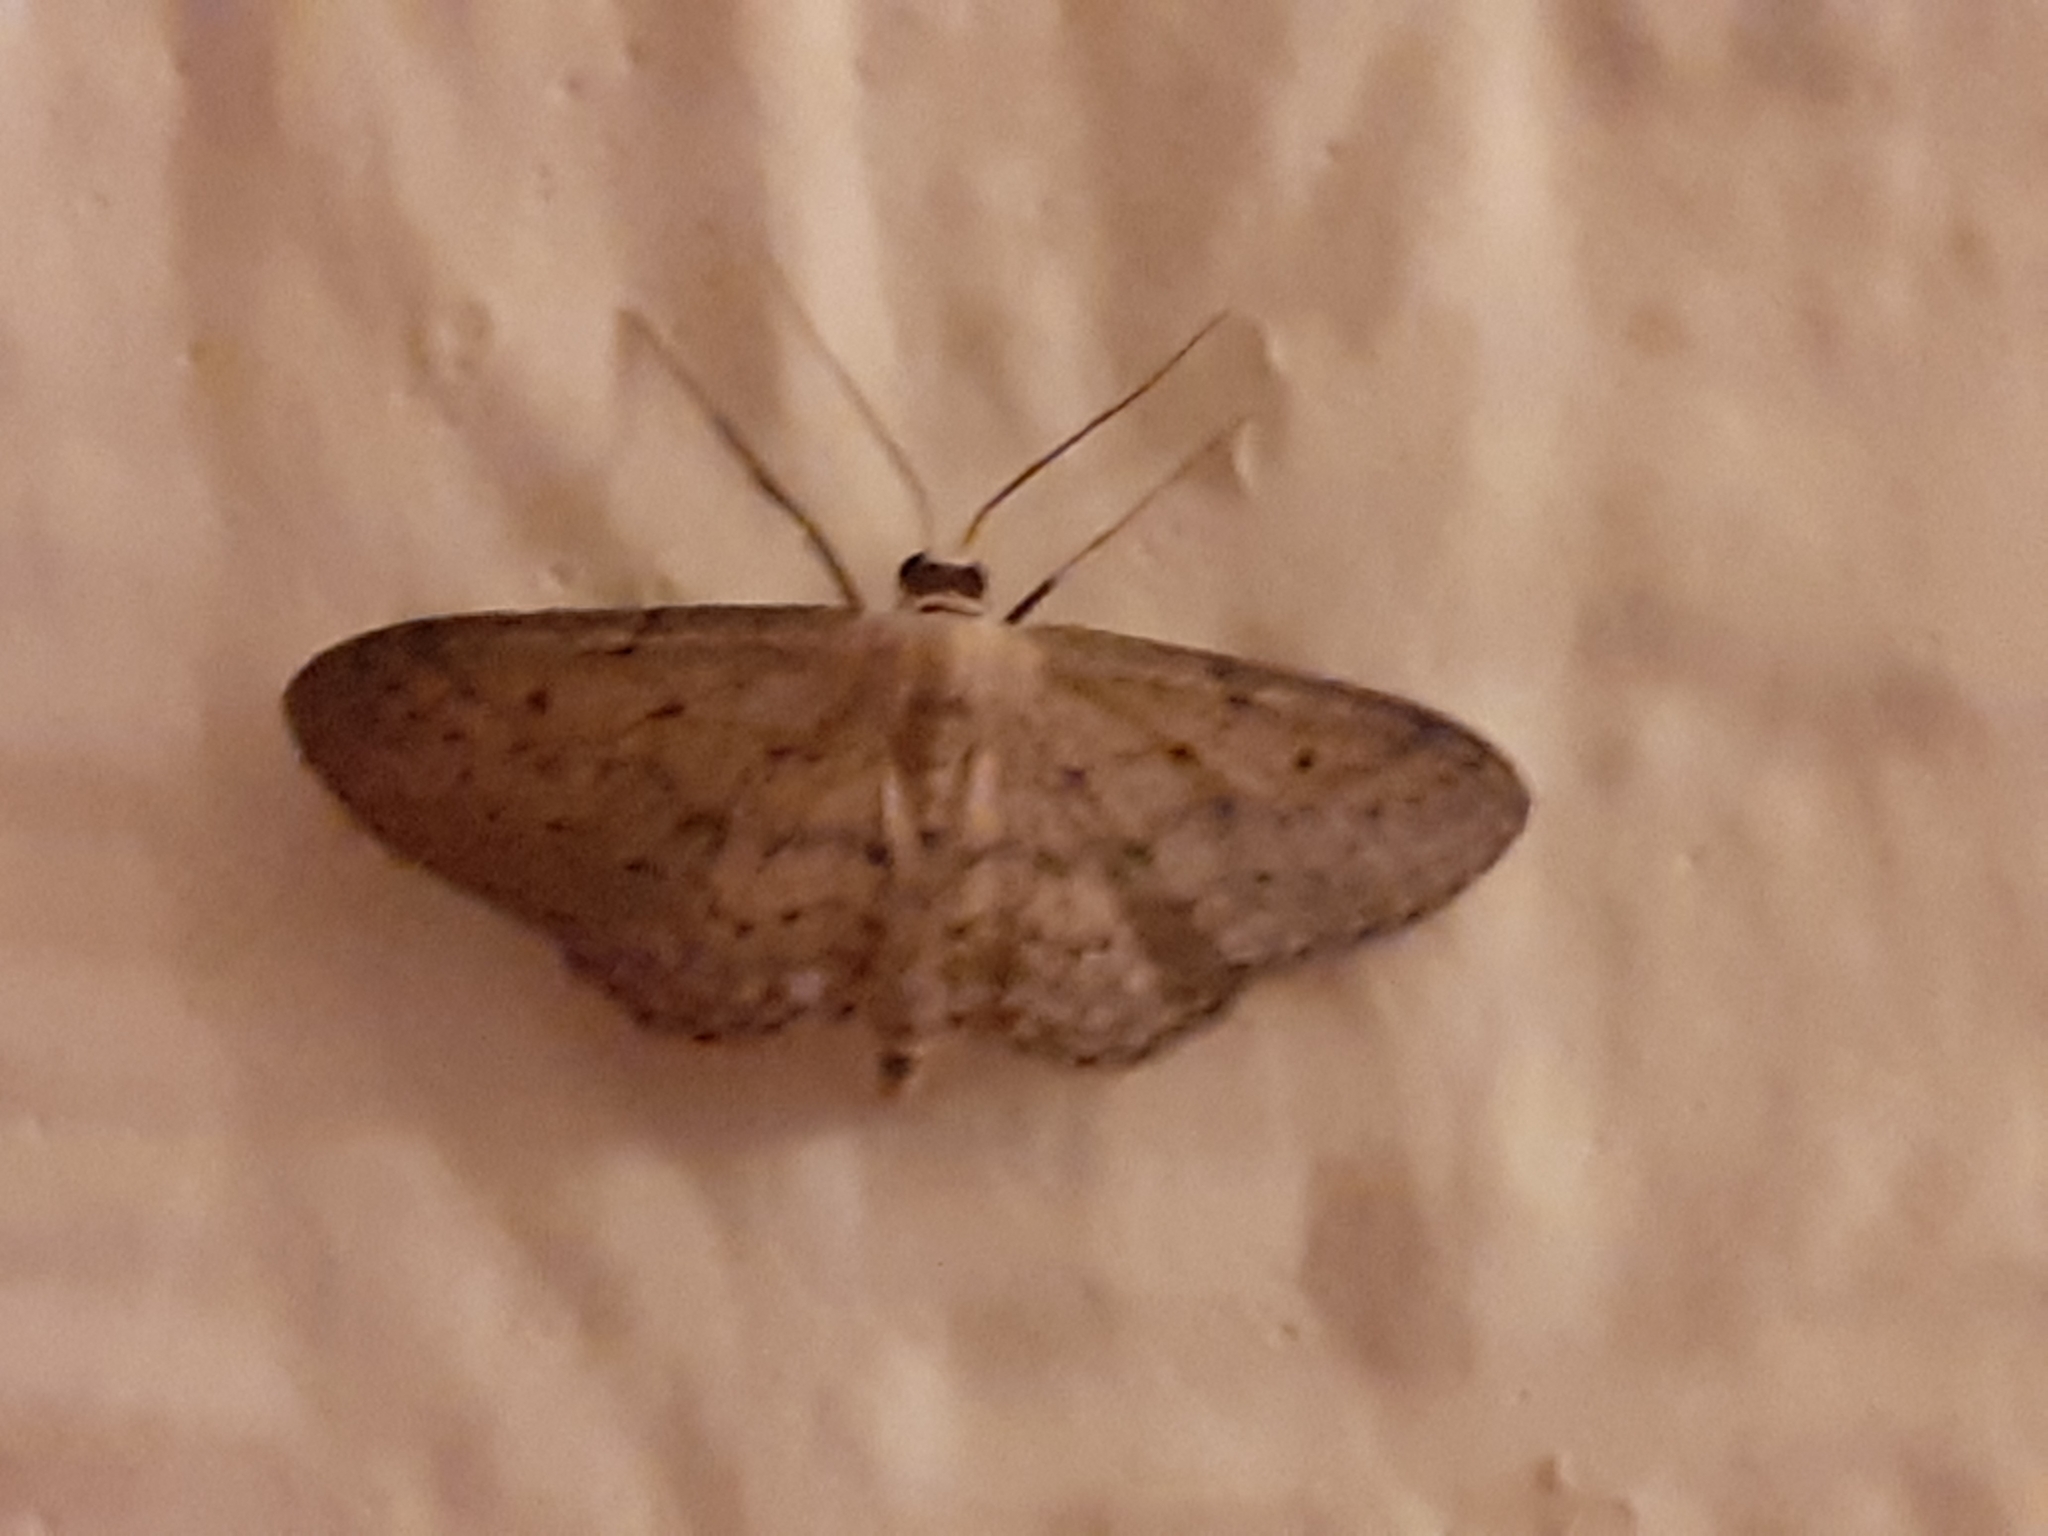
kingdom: Animalia
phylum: Arthropoda
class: Insecta
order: Lepidoptera
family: Geometridae
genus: Idaea
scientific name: Idaea seriata
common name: Small dusty wave
